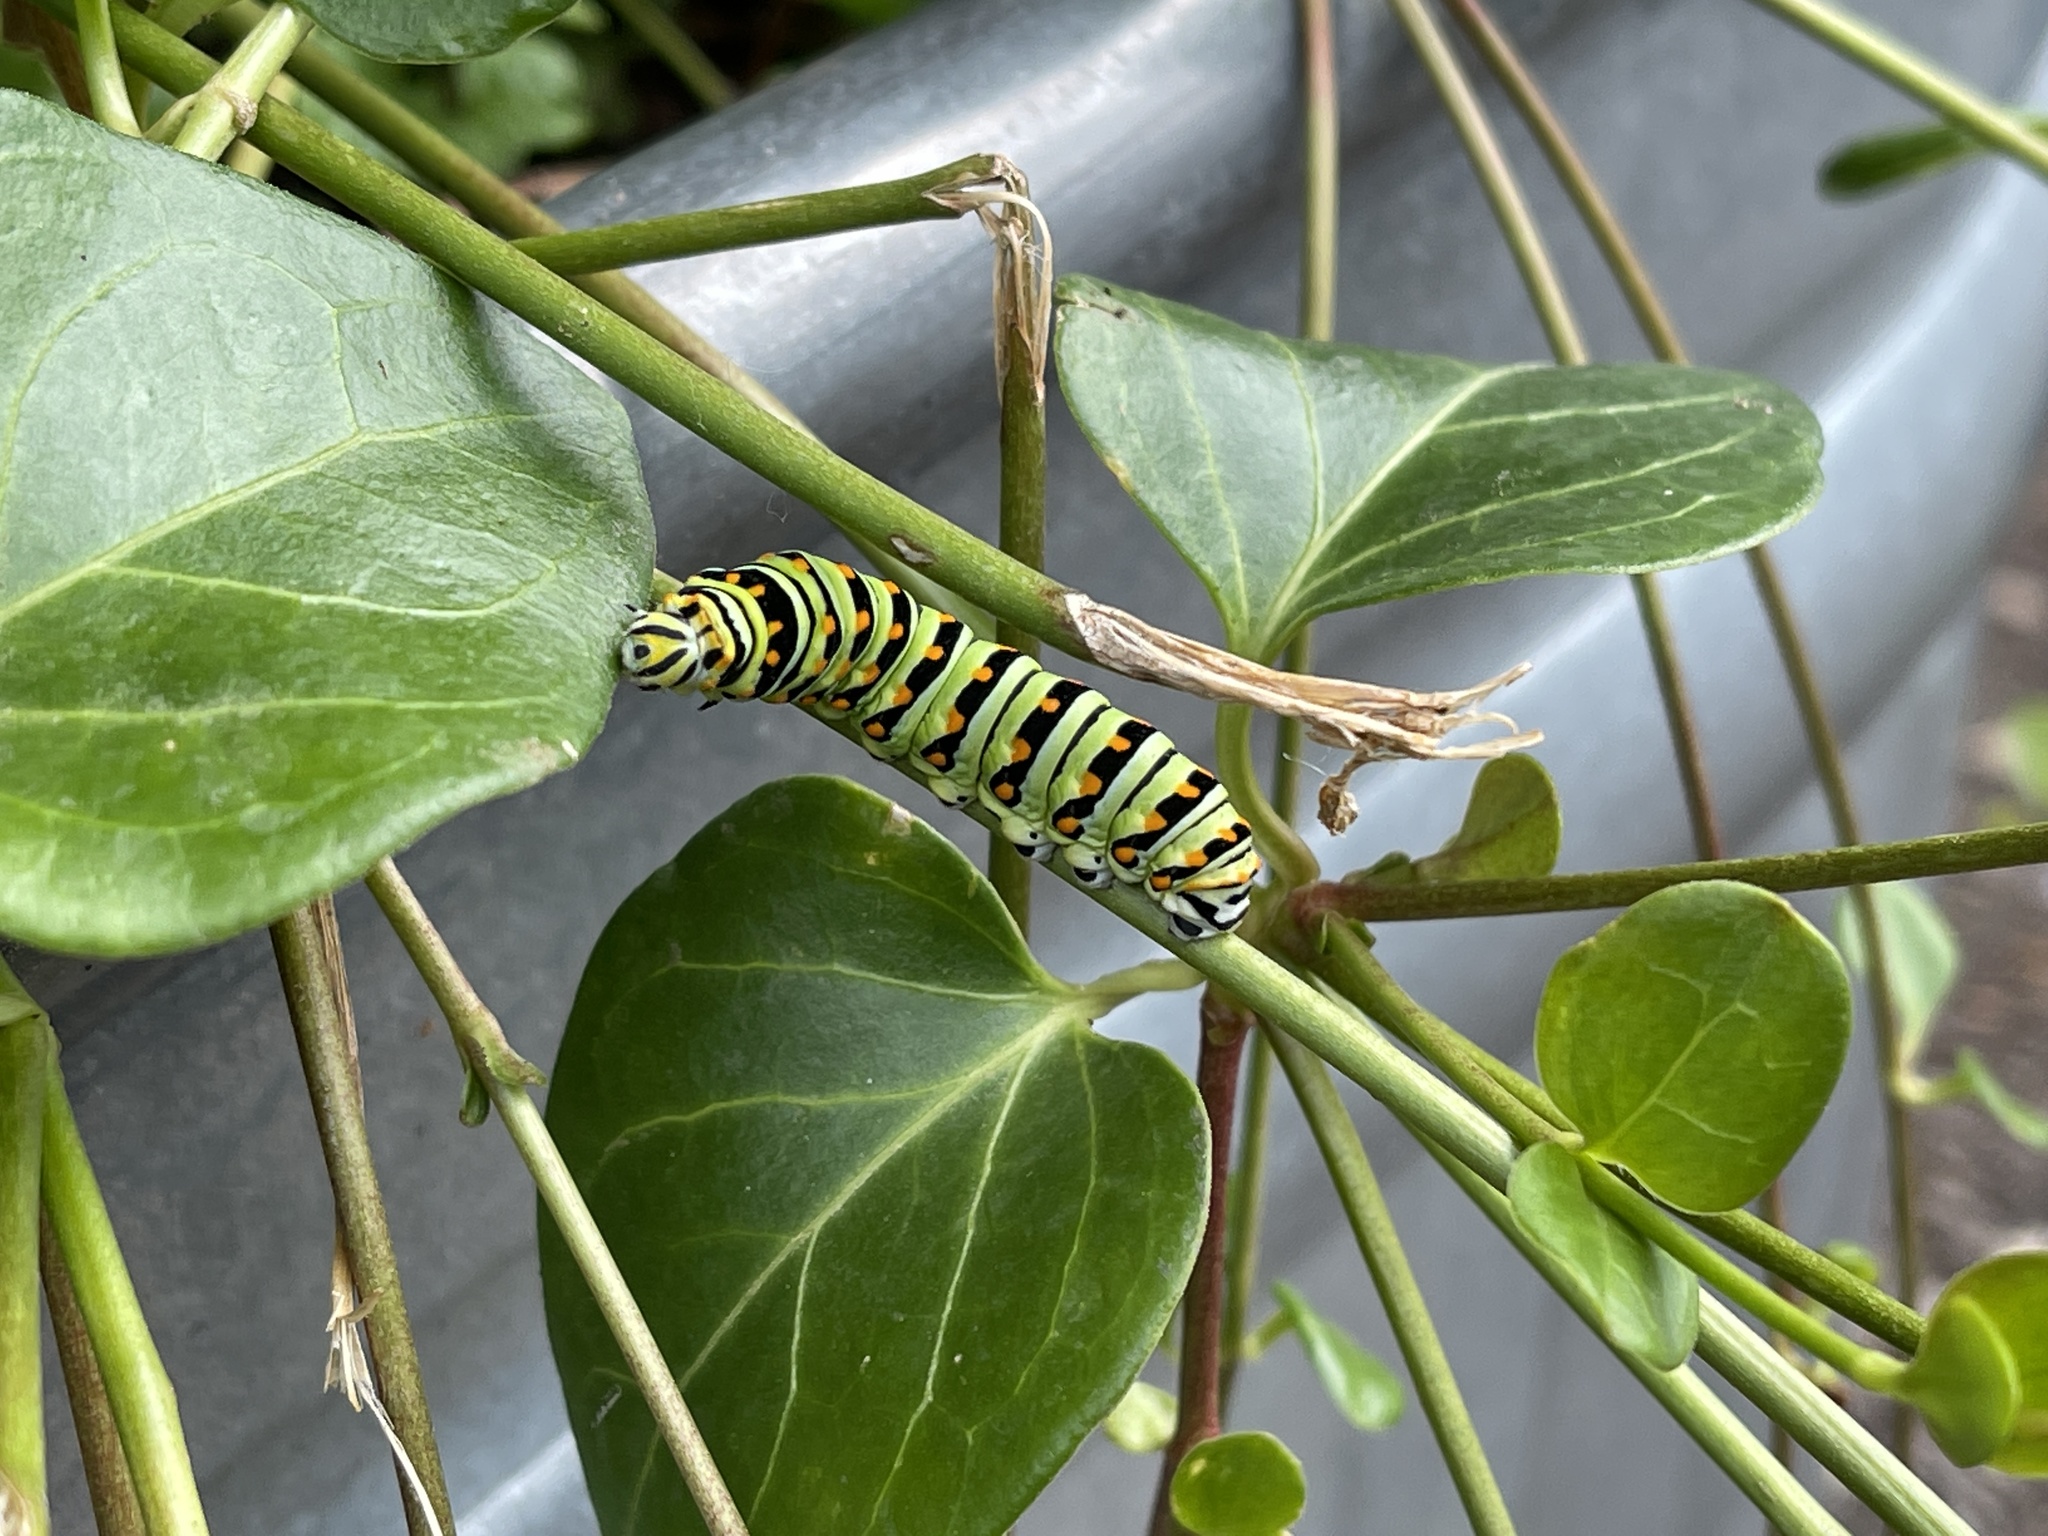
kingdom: Animalia
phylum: Arthropoda
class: Insecta
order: Lepidoptera
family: Papilionidae
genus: Papilio
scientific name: Papilio polyxenes
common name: Black swallowtail
